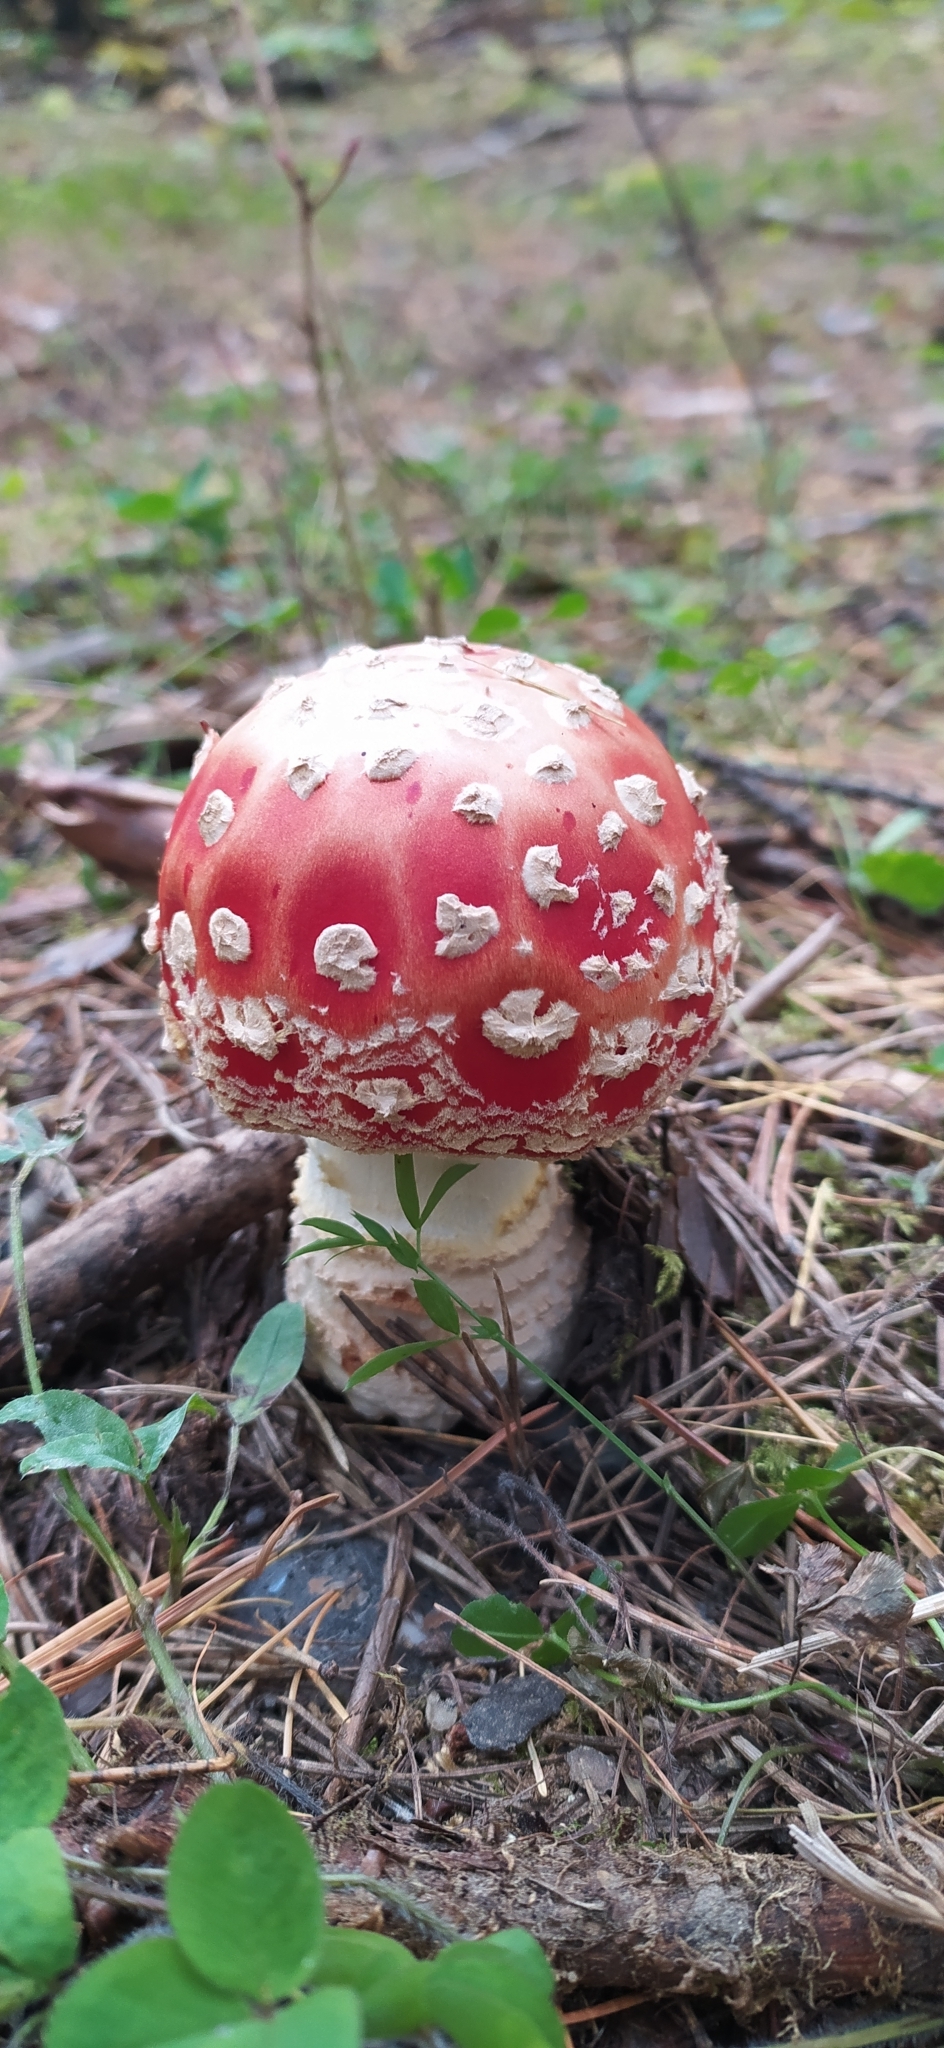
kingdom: Fungi
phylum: Basidiomycota
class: Agaricomycetes
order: Agaricales
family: Amanitaceae
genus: Amanita
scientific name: Amanita muscaria
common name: Fly agaric
